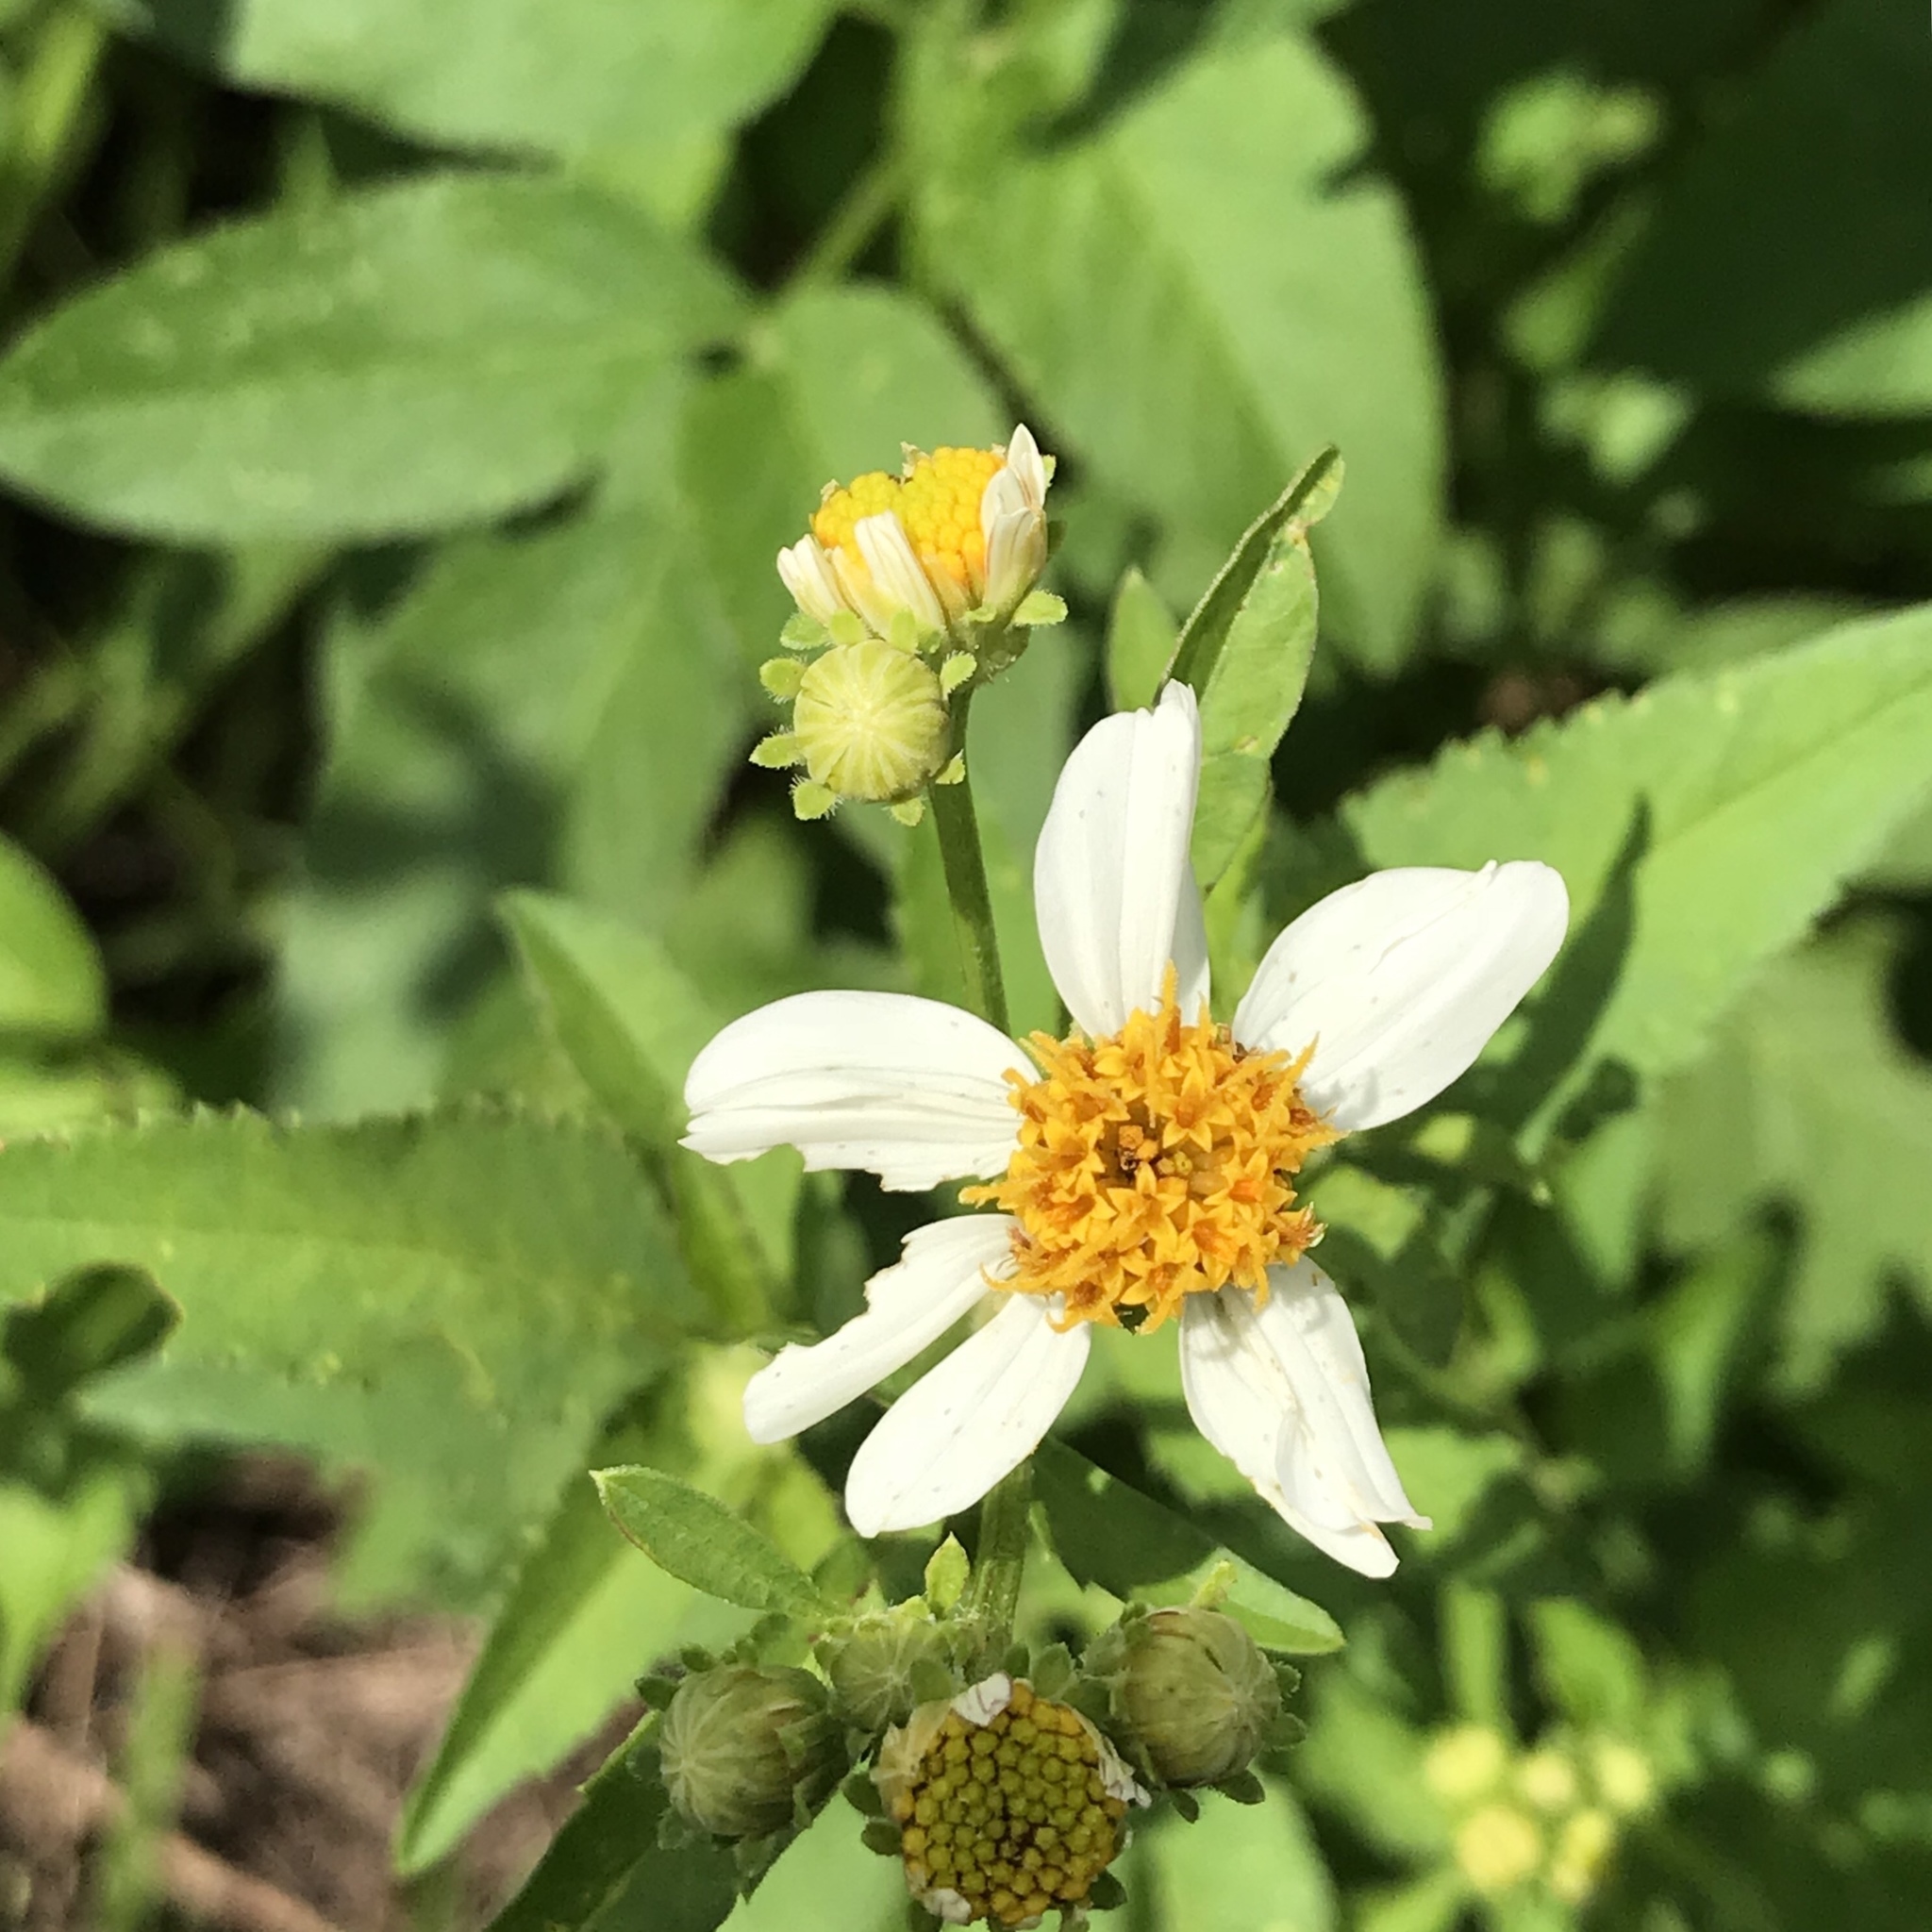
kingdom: Plantae
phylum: Tracheophyta
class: Magnoliopsida
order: Asterales
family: Asteraceae
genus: Bidens
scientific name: Bidens alba
